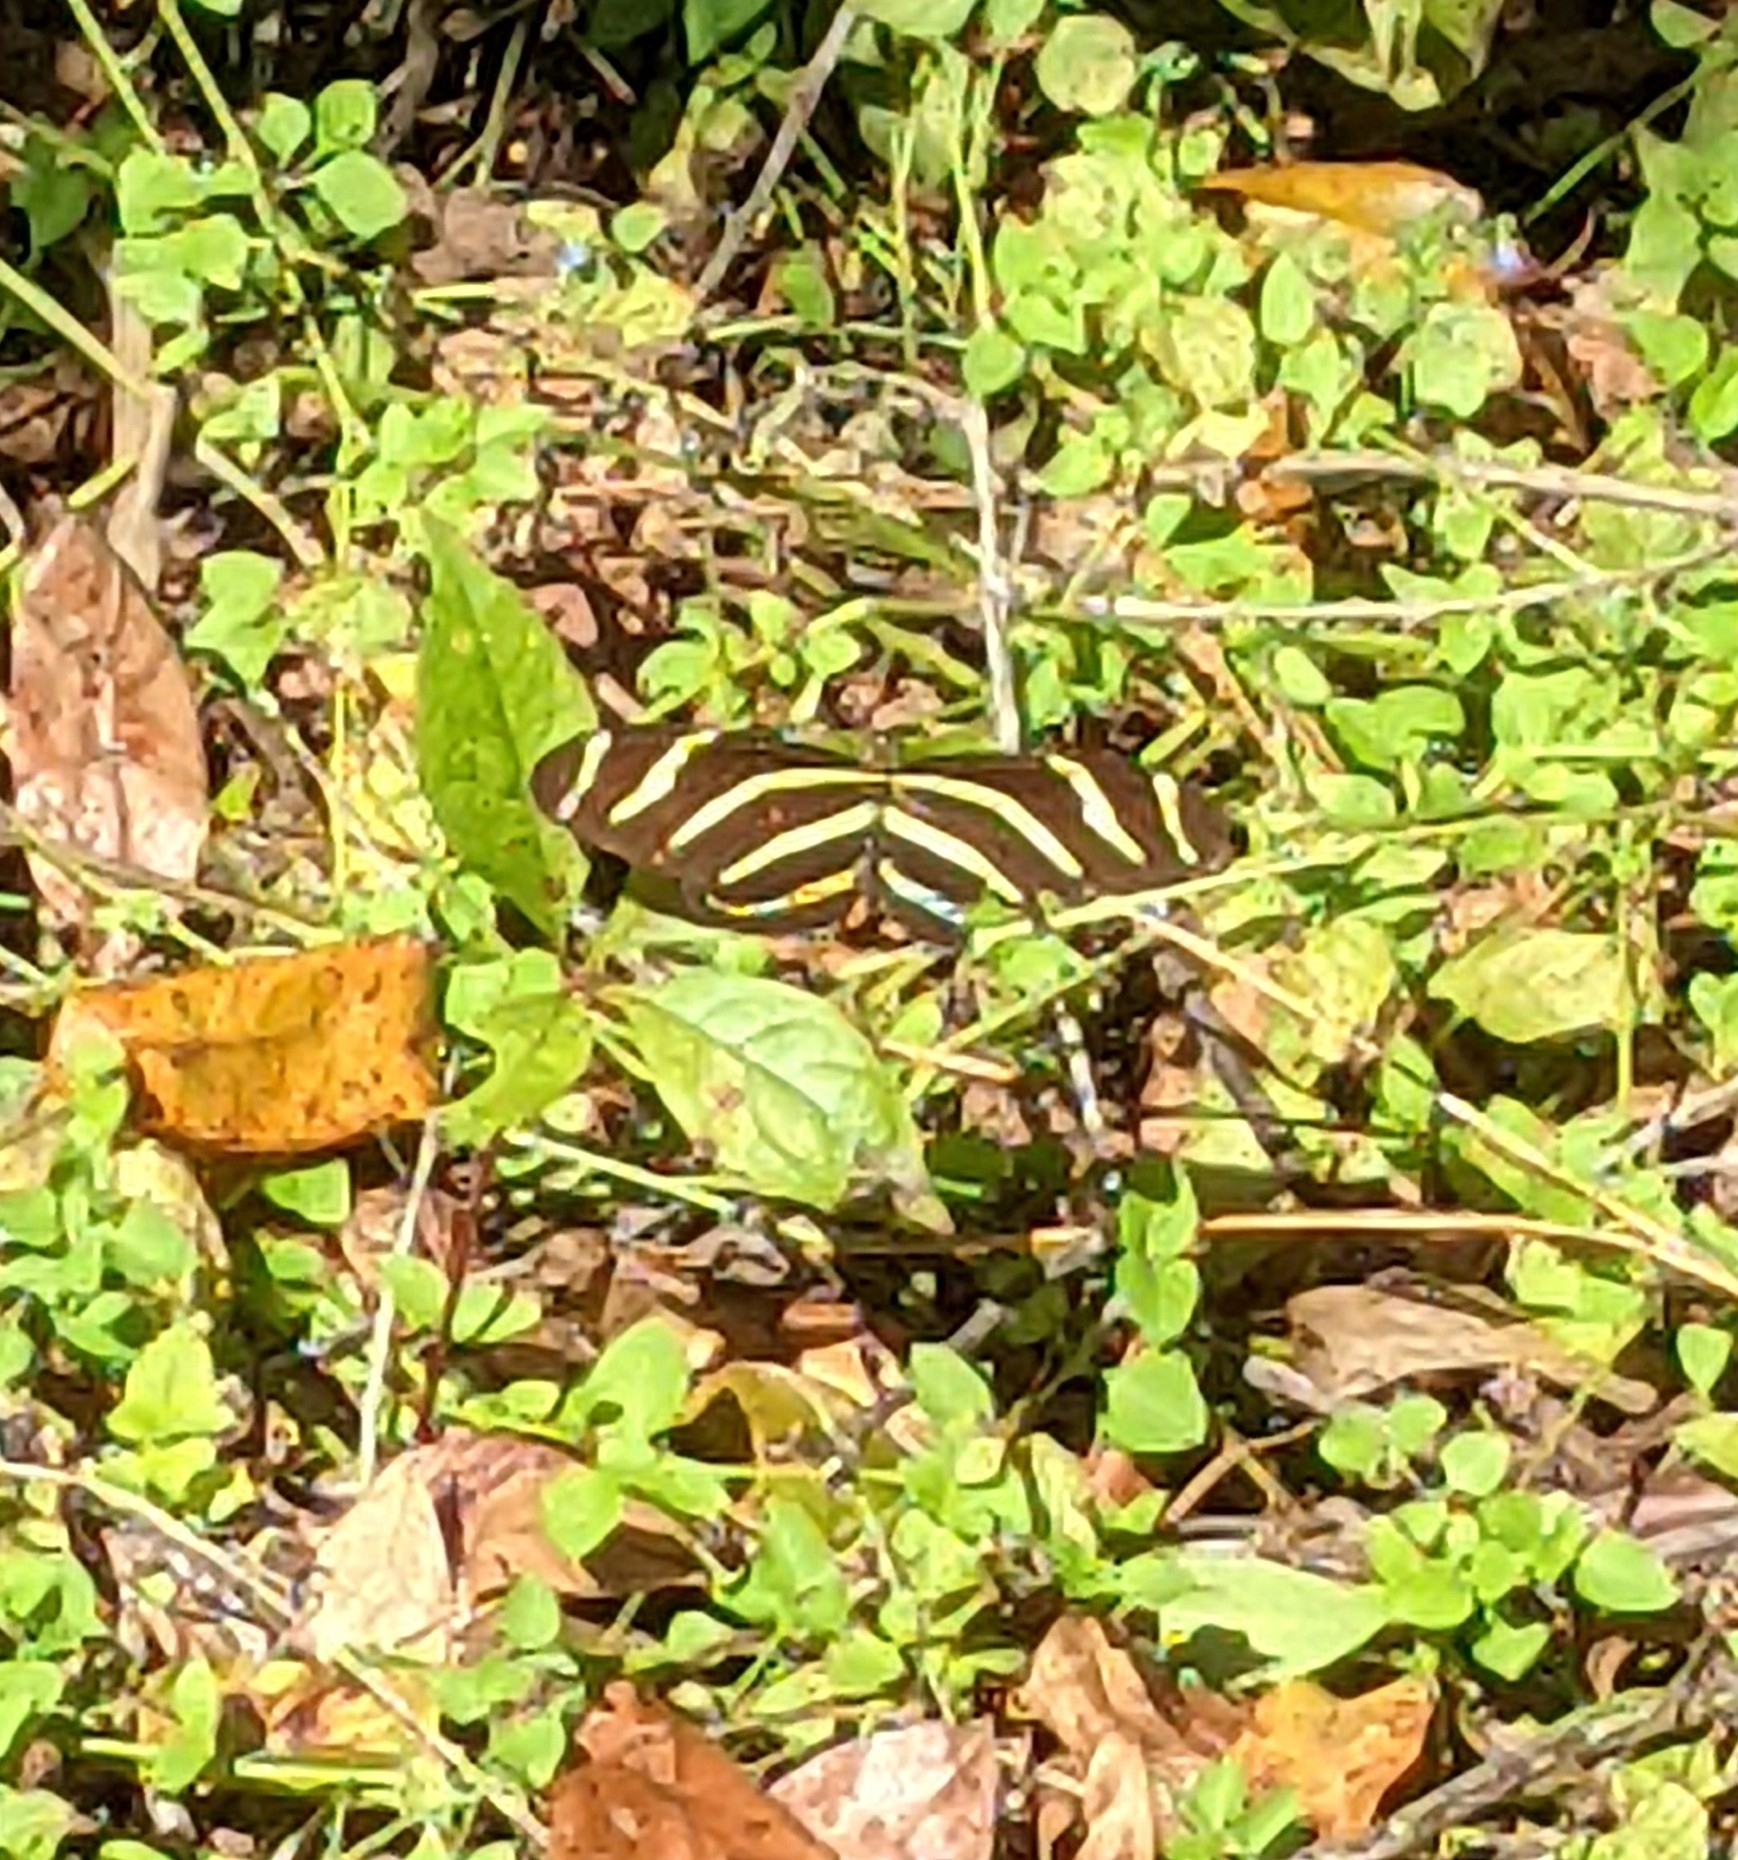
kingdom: Animalia
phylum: Arthropoda
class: Insecta
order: Lepidoptera
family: Nymphalidae
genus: Heliconius
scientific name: Heliconius charithonia
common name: Zebra long wing
